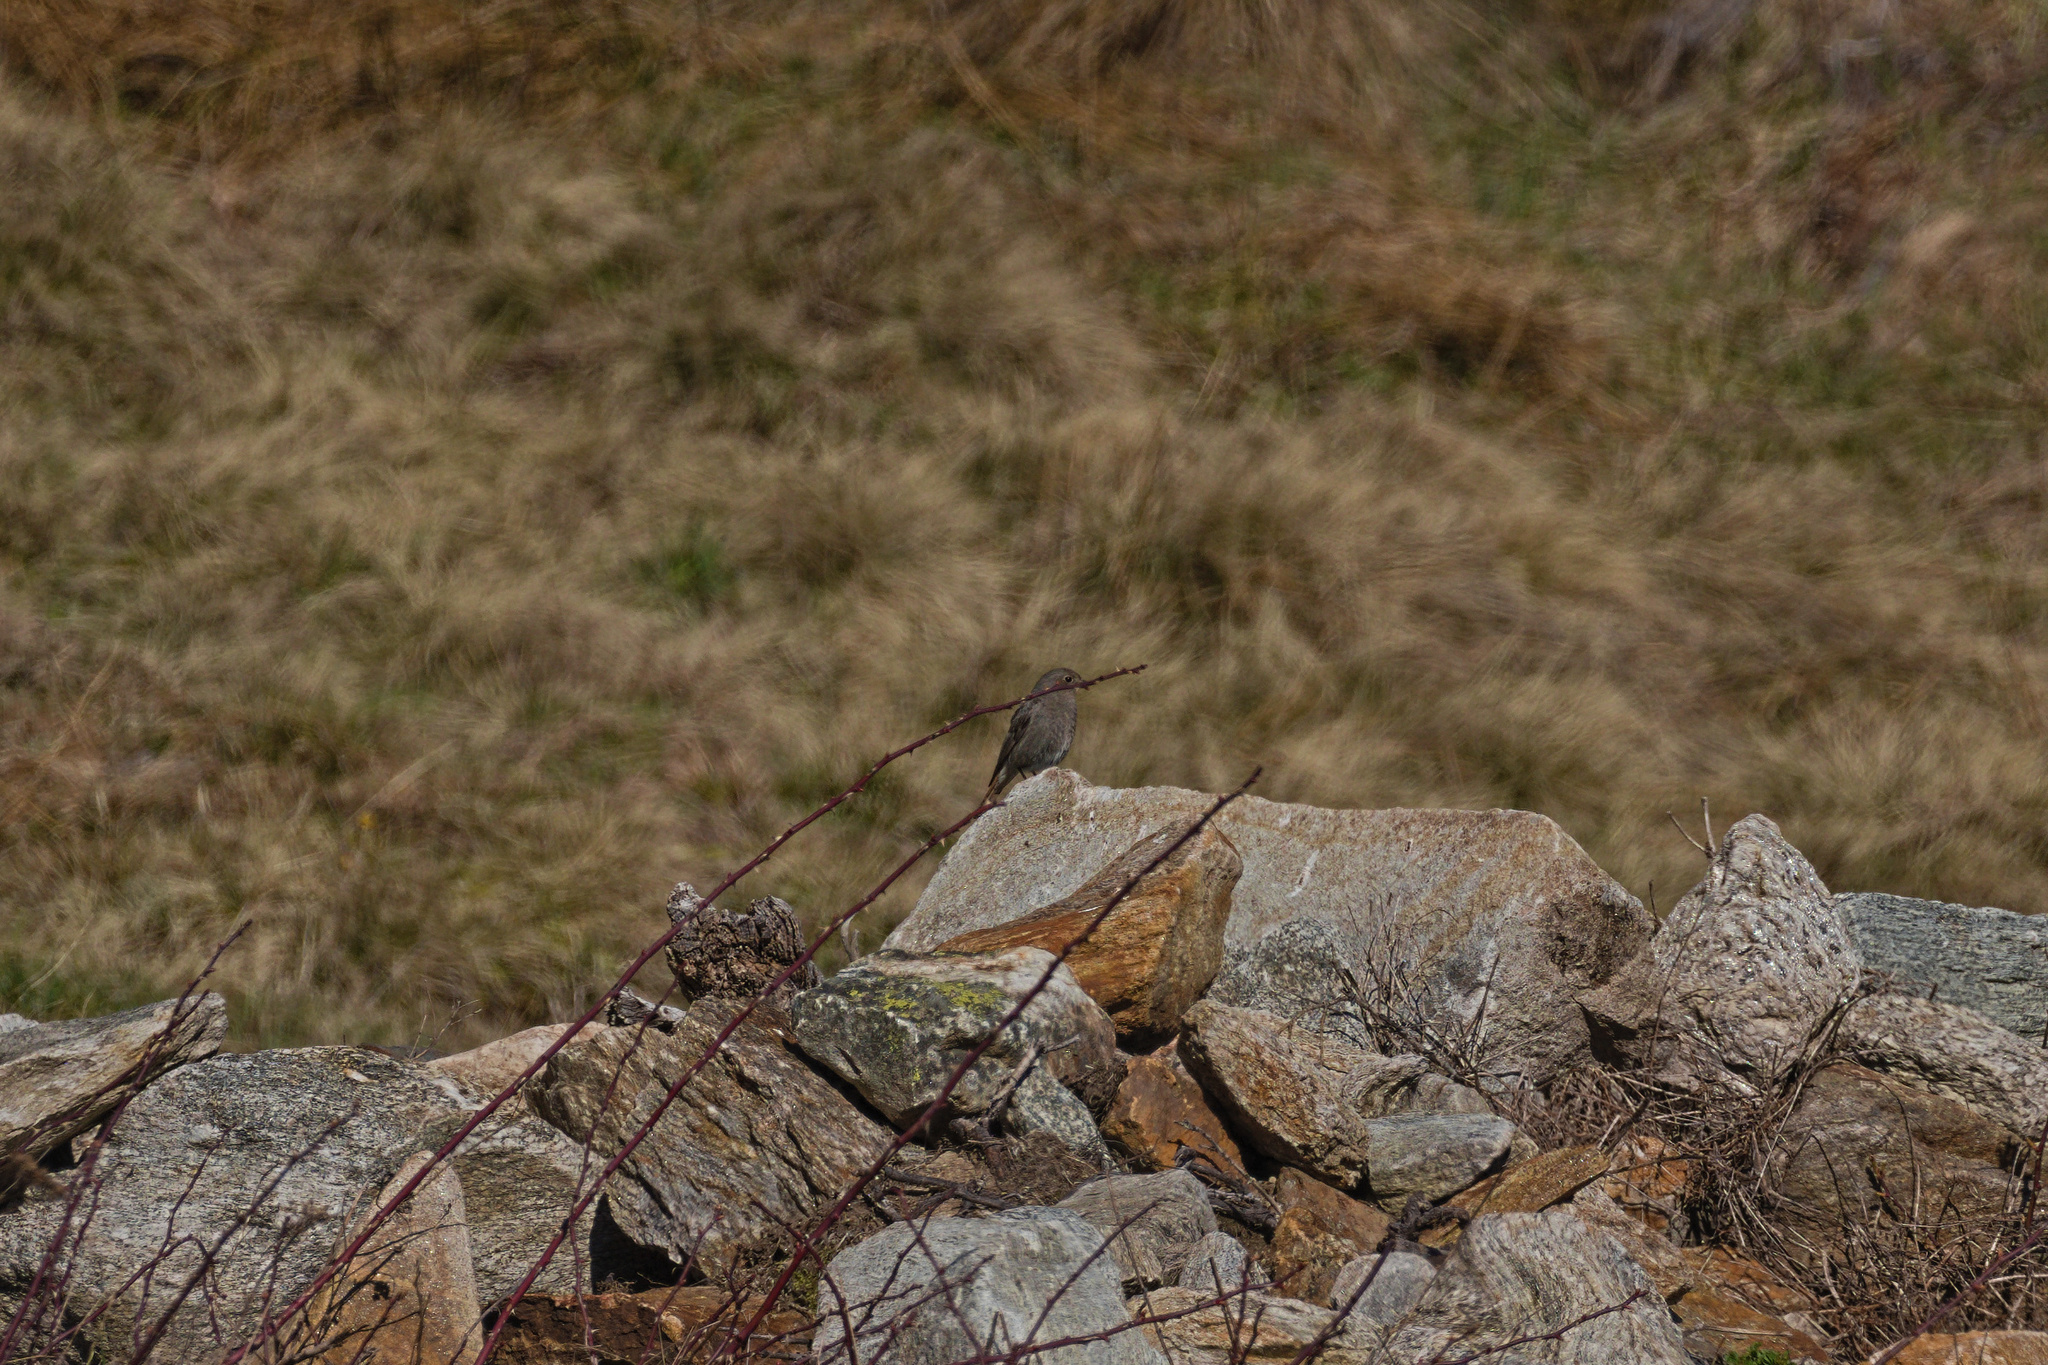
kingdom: Animalia
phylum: Chordata
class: Aves
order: Passeriformes
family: Muscicapidae
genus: Phoenicurus
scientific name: Phoenicurus ochruros
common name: Black redstart
